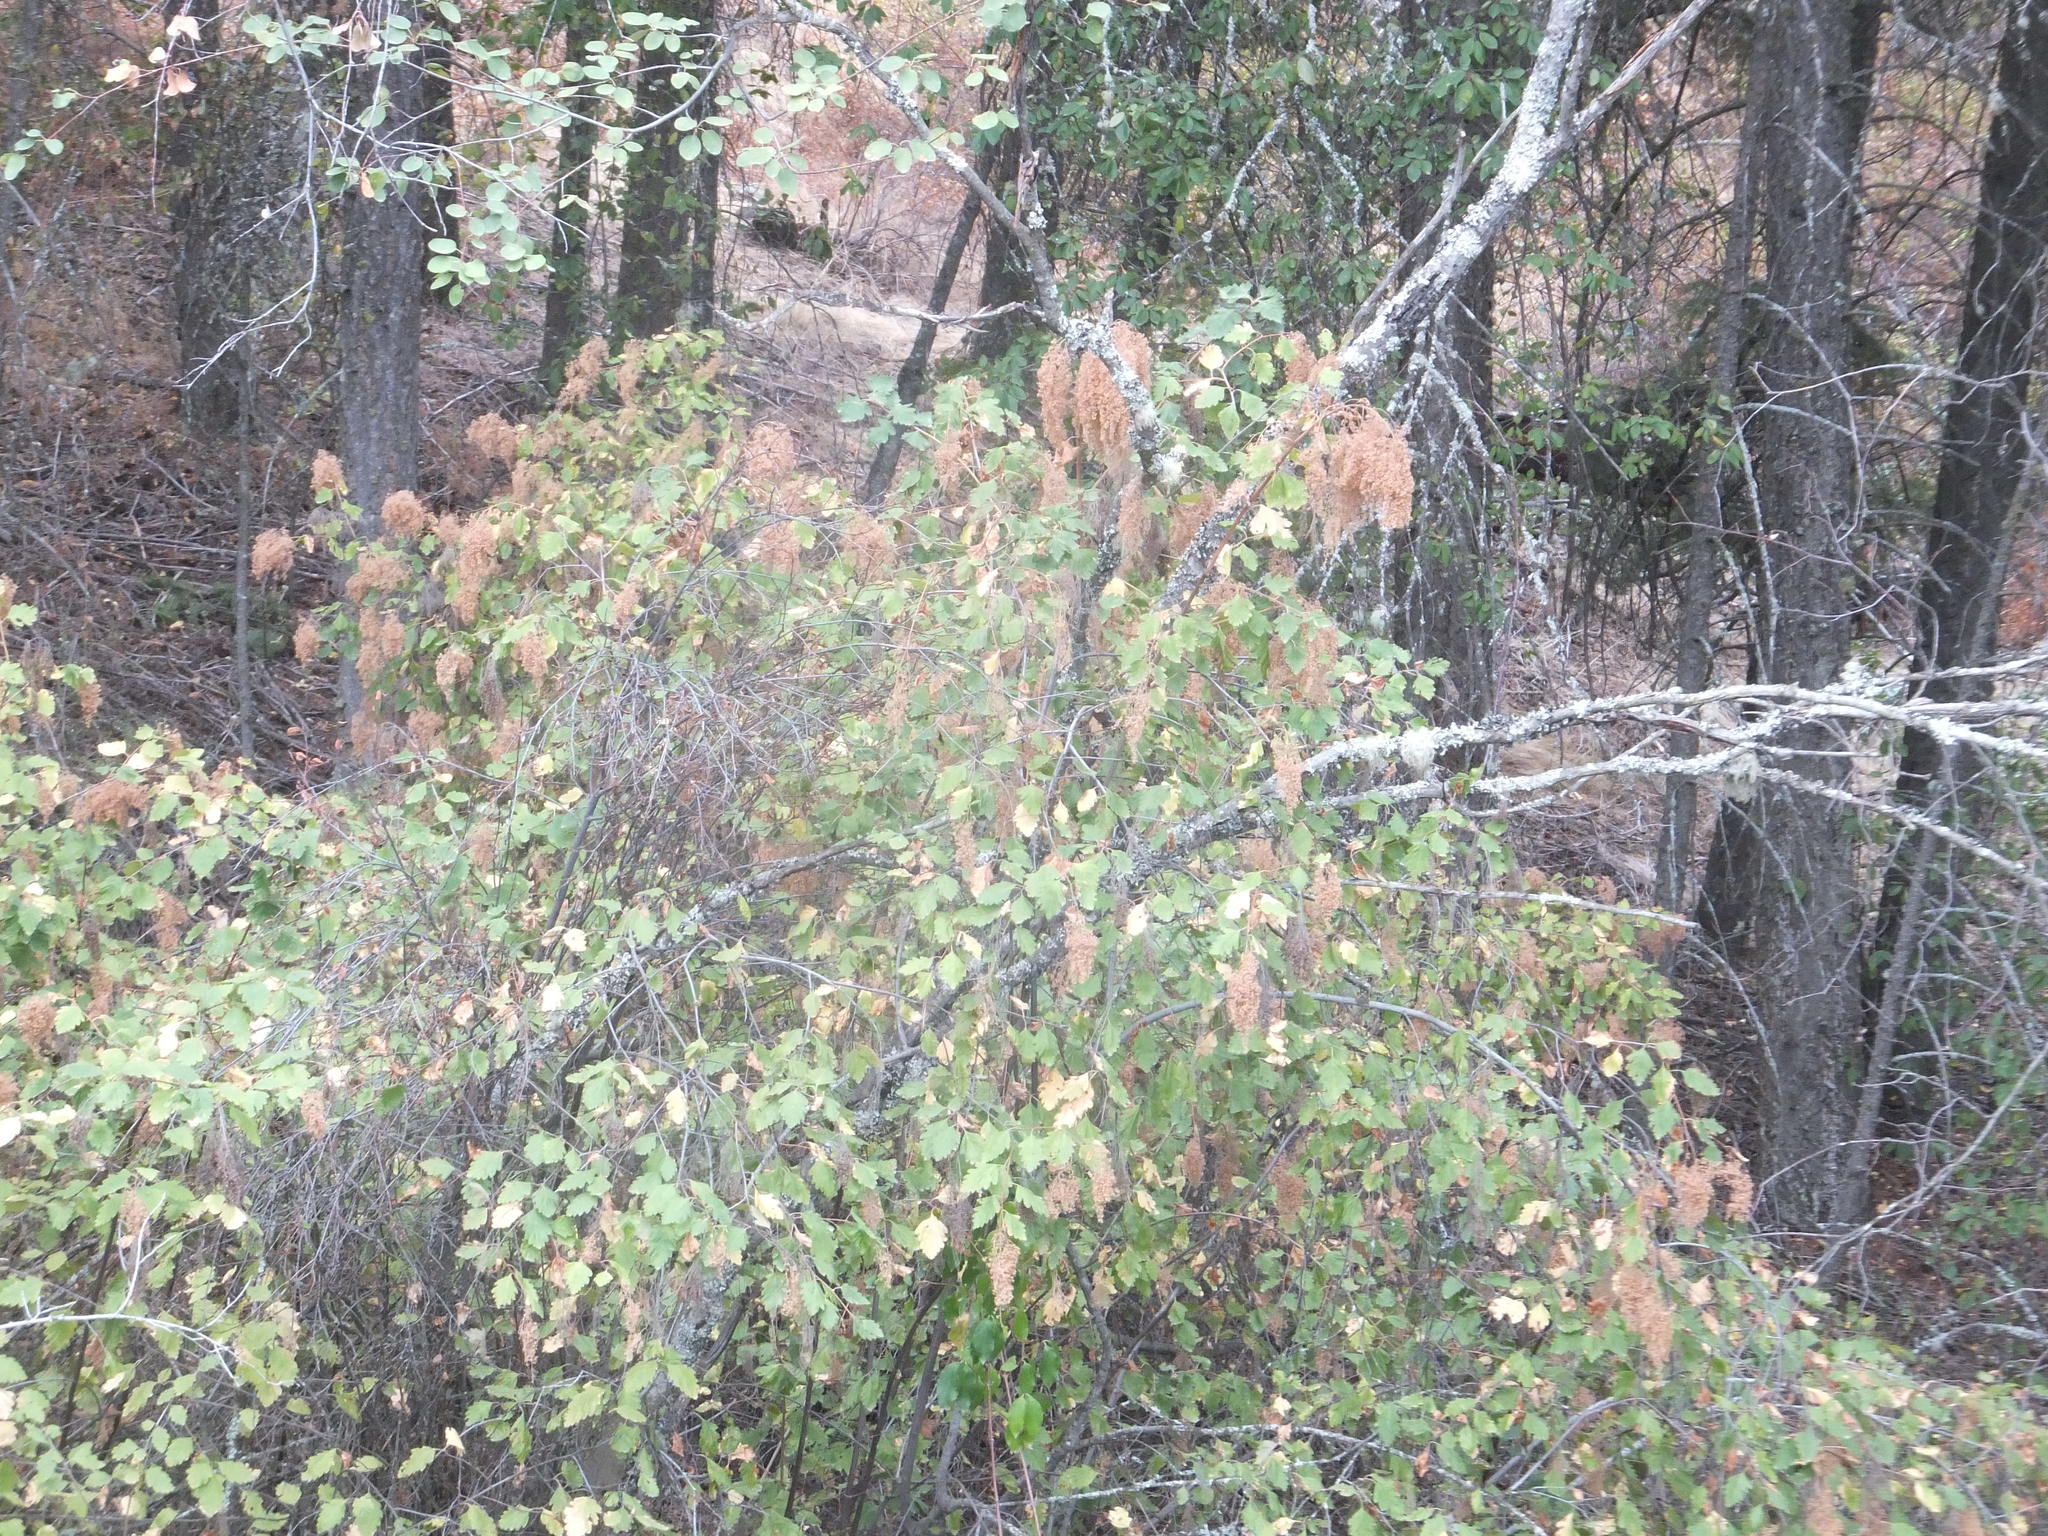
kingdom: Plantae
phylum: Tracheophyta
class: Magnoliopsida
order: Rosales
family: Rosaceae
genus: Holodiscus
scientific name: Holodiscus discolor
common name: Oceanspray
